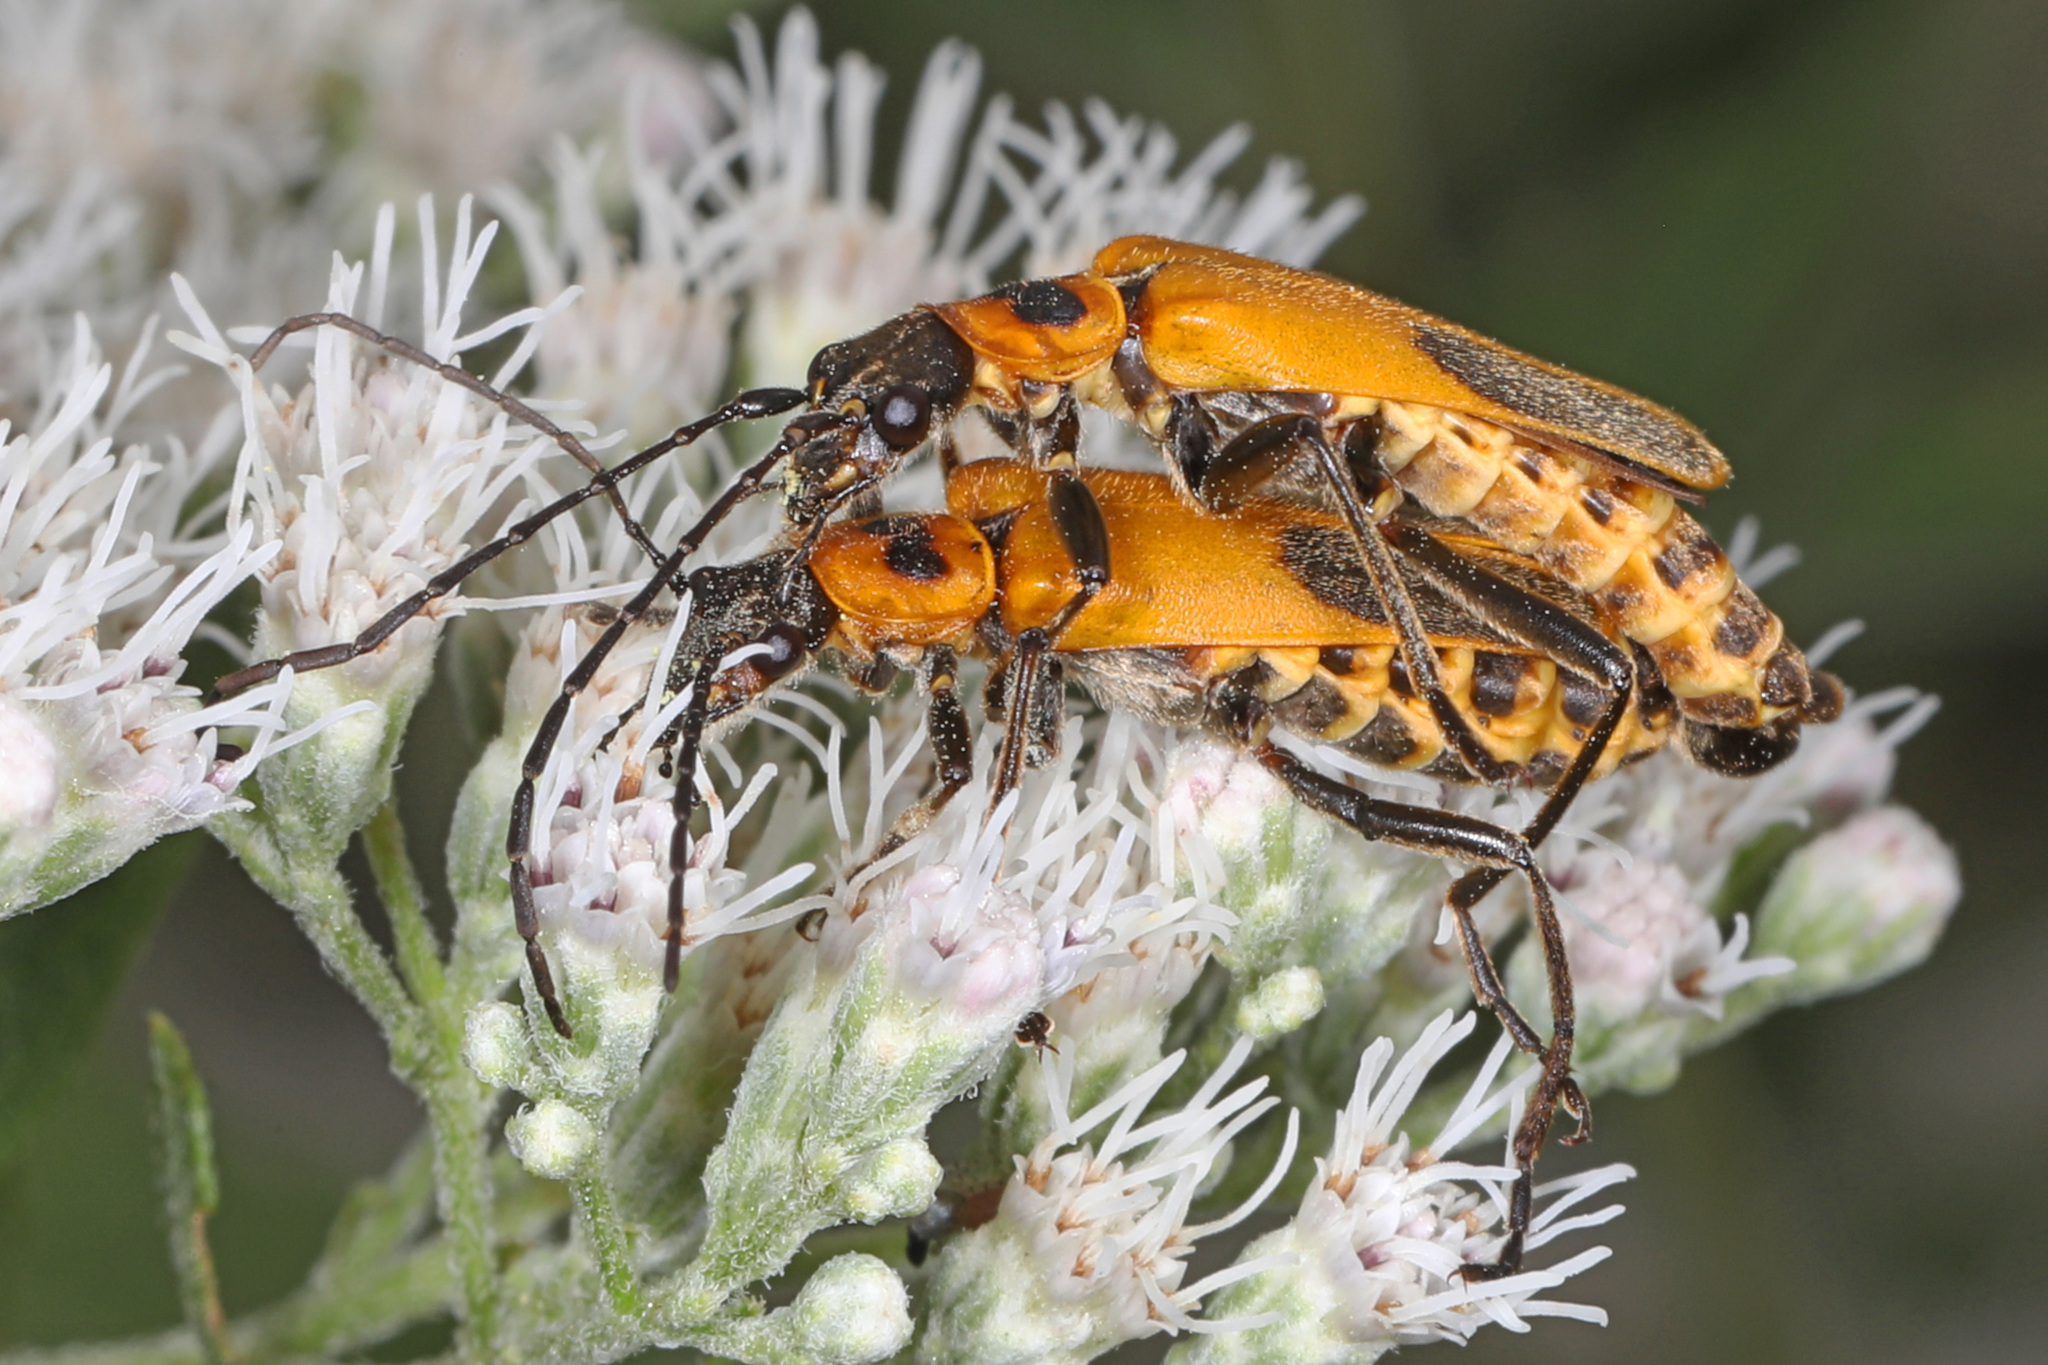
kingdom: Animalia
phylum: Arthropoda
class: Insecta
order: Coleoptera
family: Cantharidae
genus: Chauliognathus
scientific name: Chauliognathus pensylvanicus
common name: Goldenrod soldier beetle
